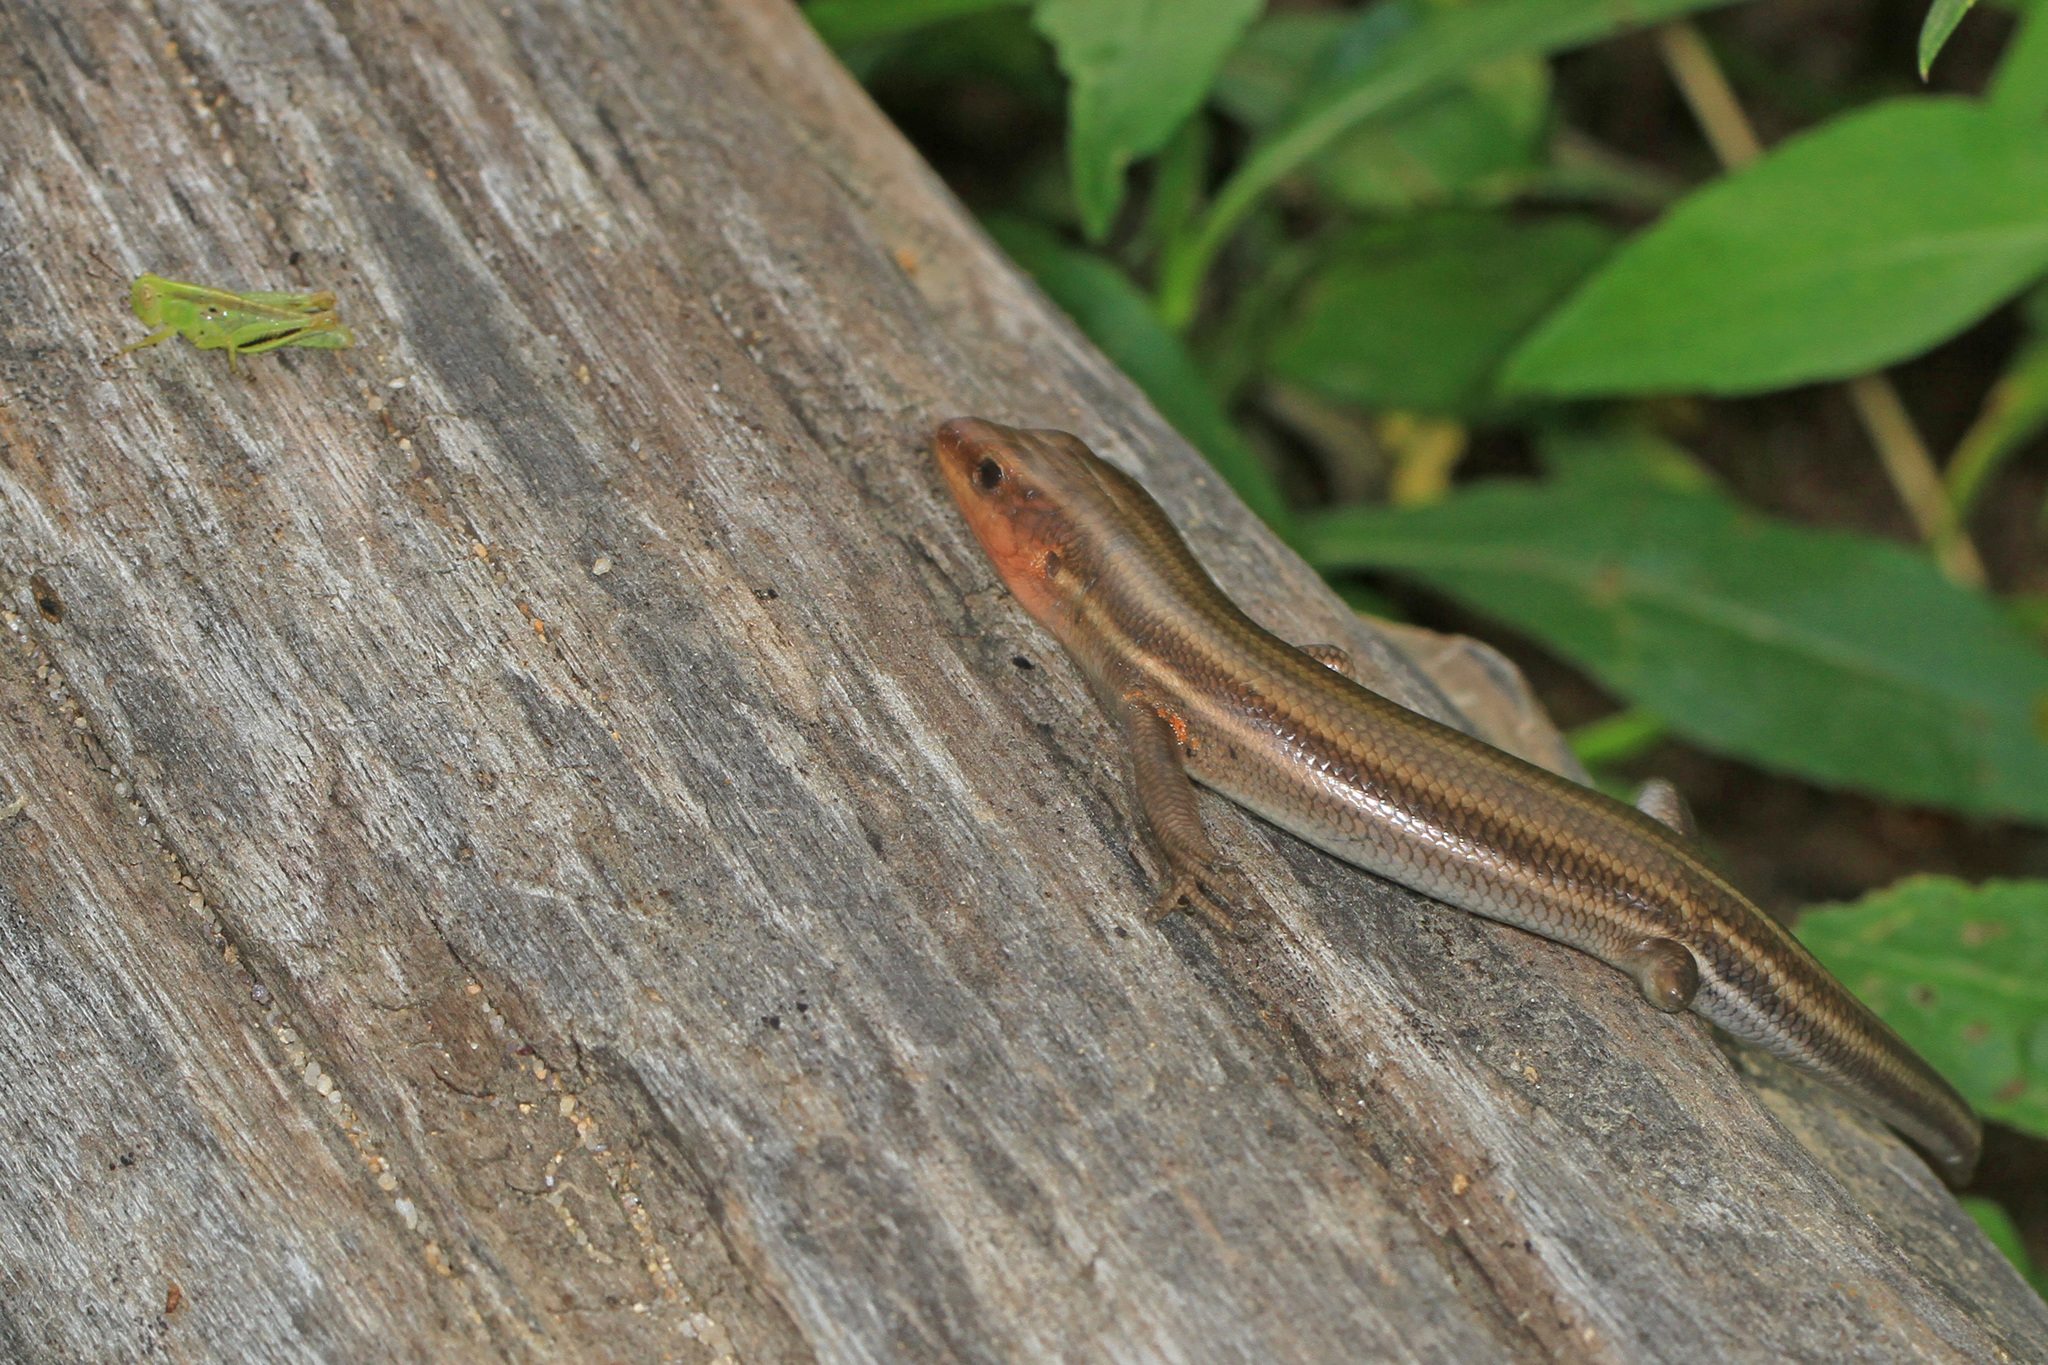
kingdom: Animalia
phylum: Chordata
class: Squamata
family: Scincidae
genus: Plestiodon
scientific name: Plestiodon fasciatus
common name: Five-lined skink
